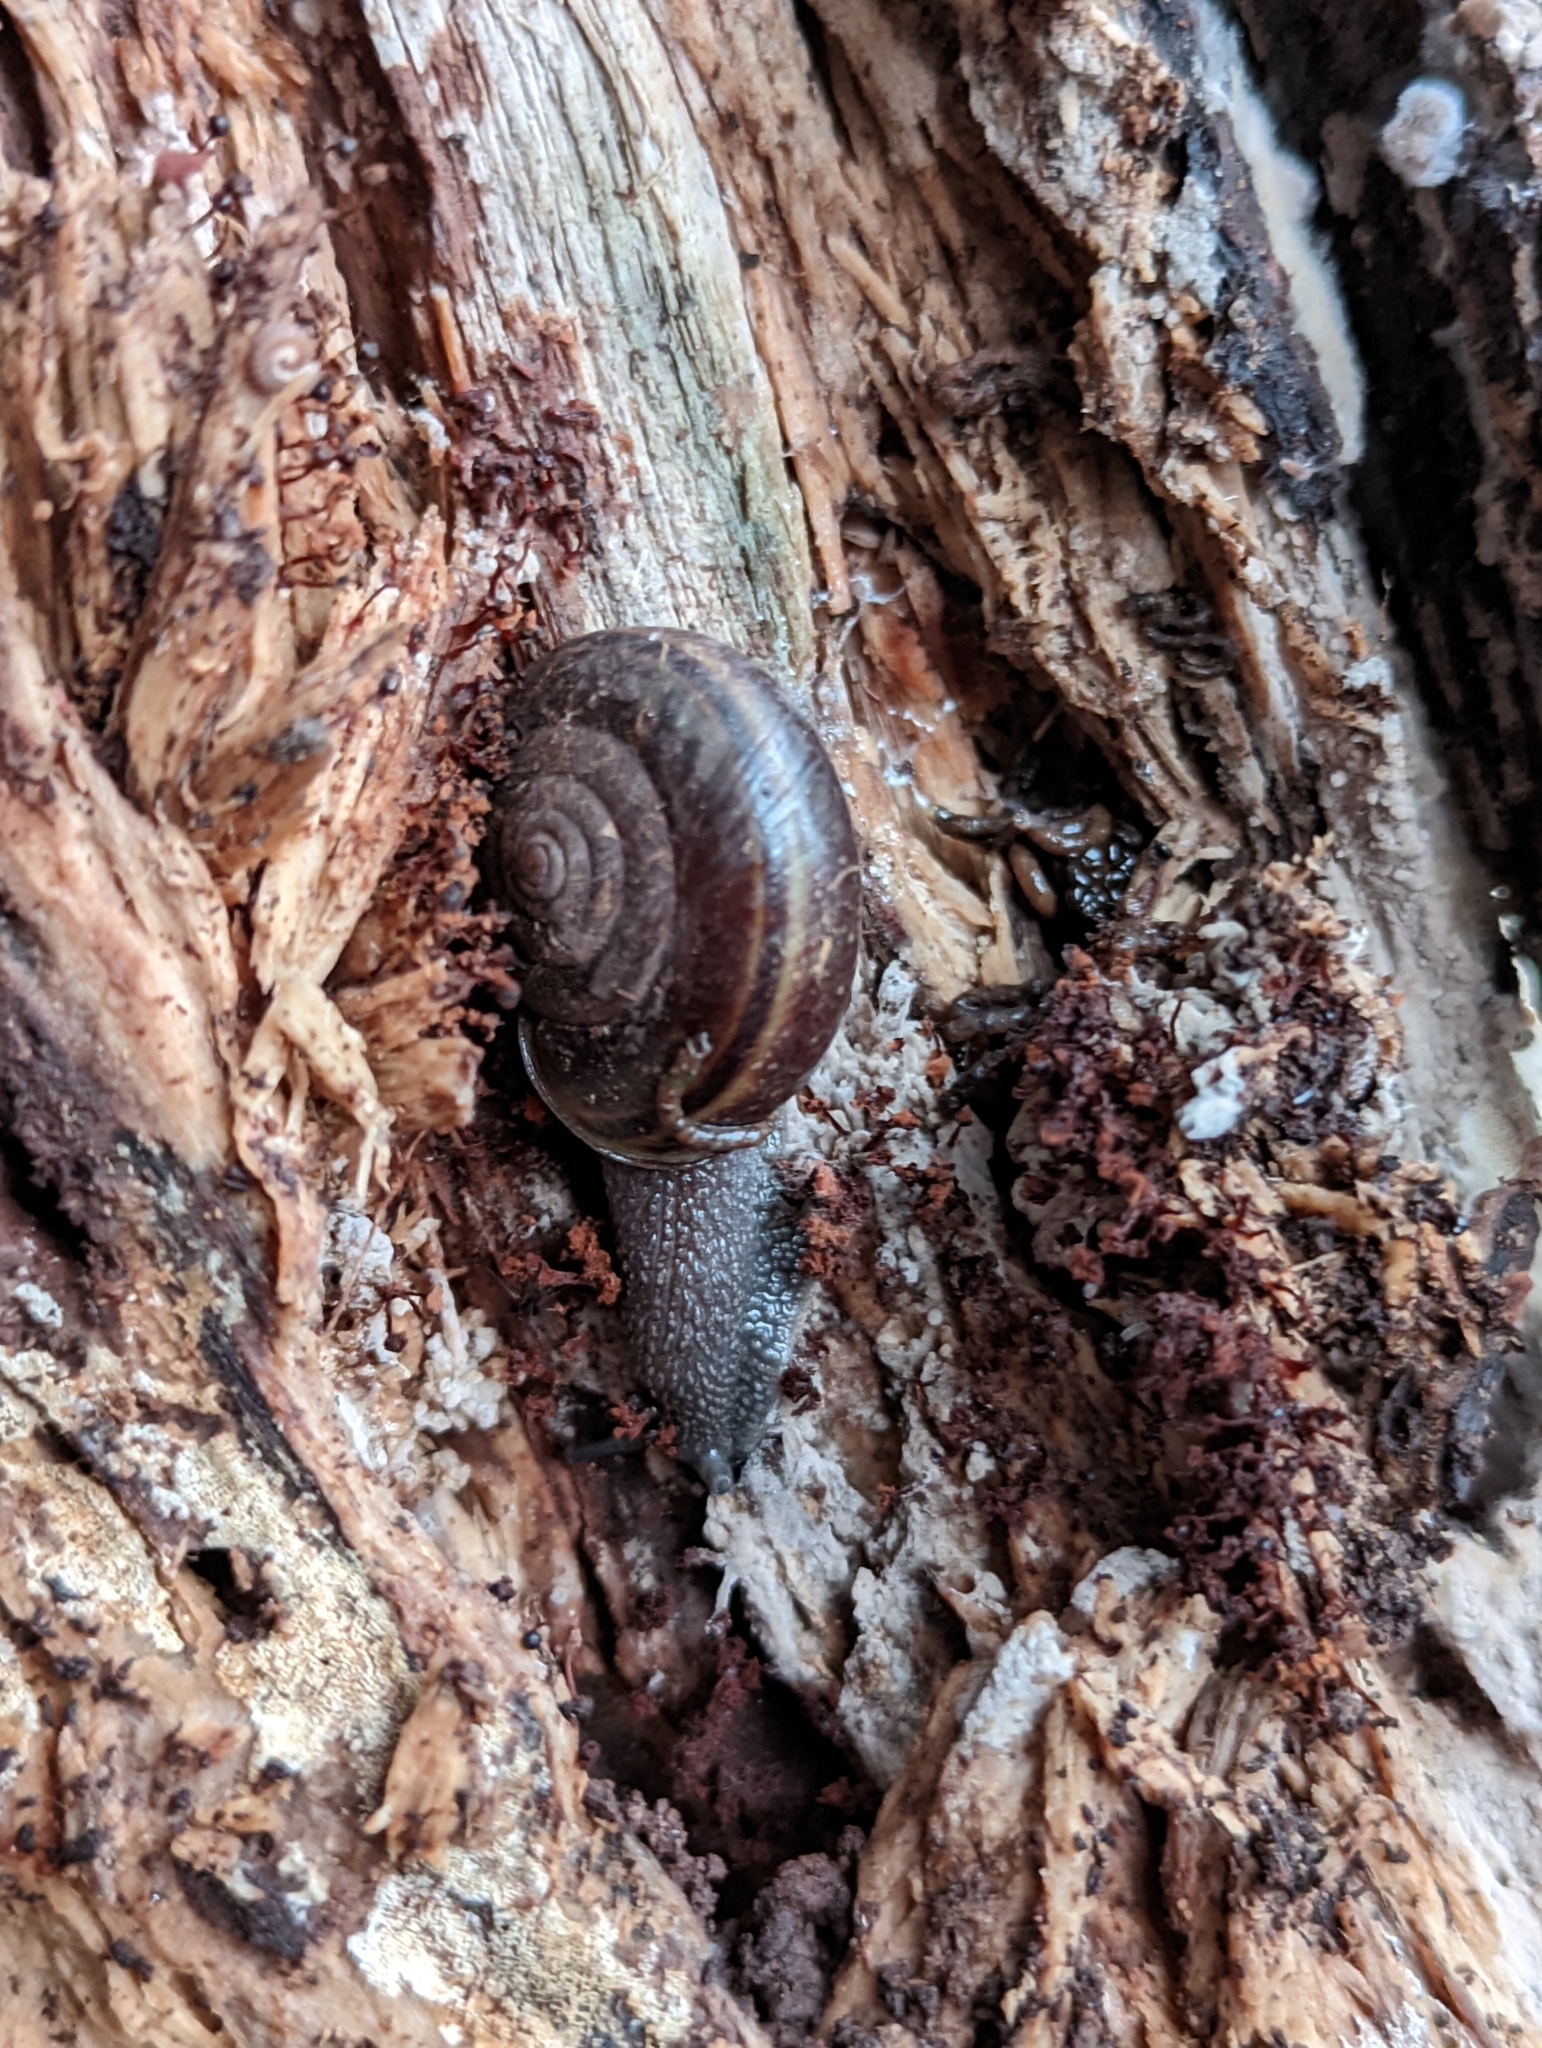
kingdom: Animalia
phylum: Mollusca
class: Gastropoda
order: Stylommatophora
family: Xanthonychidae
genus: Helminthoglypta
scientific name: Helminthoglypta sequoicola
